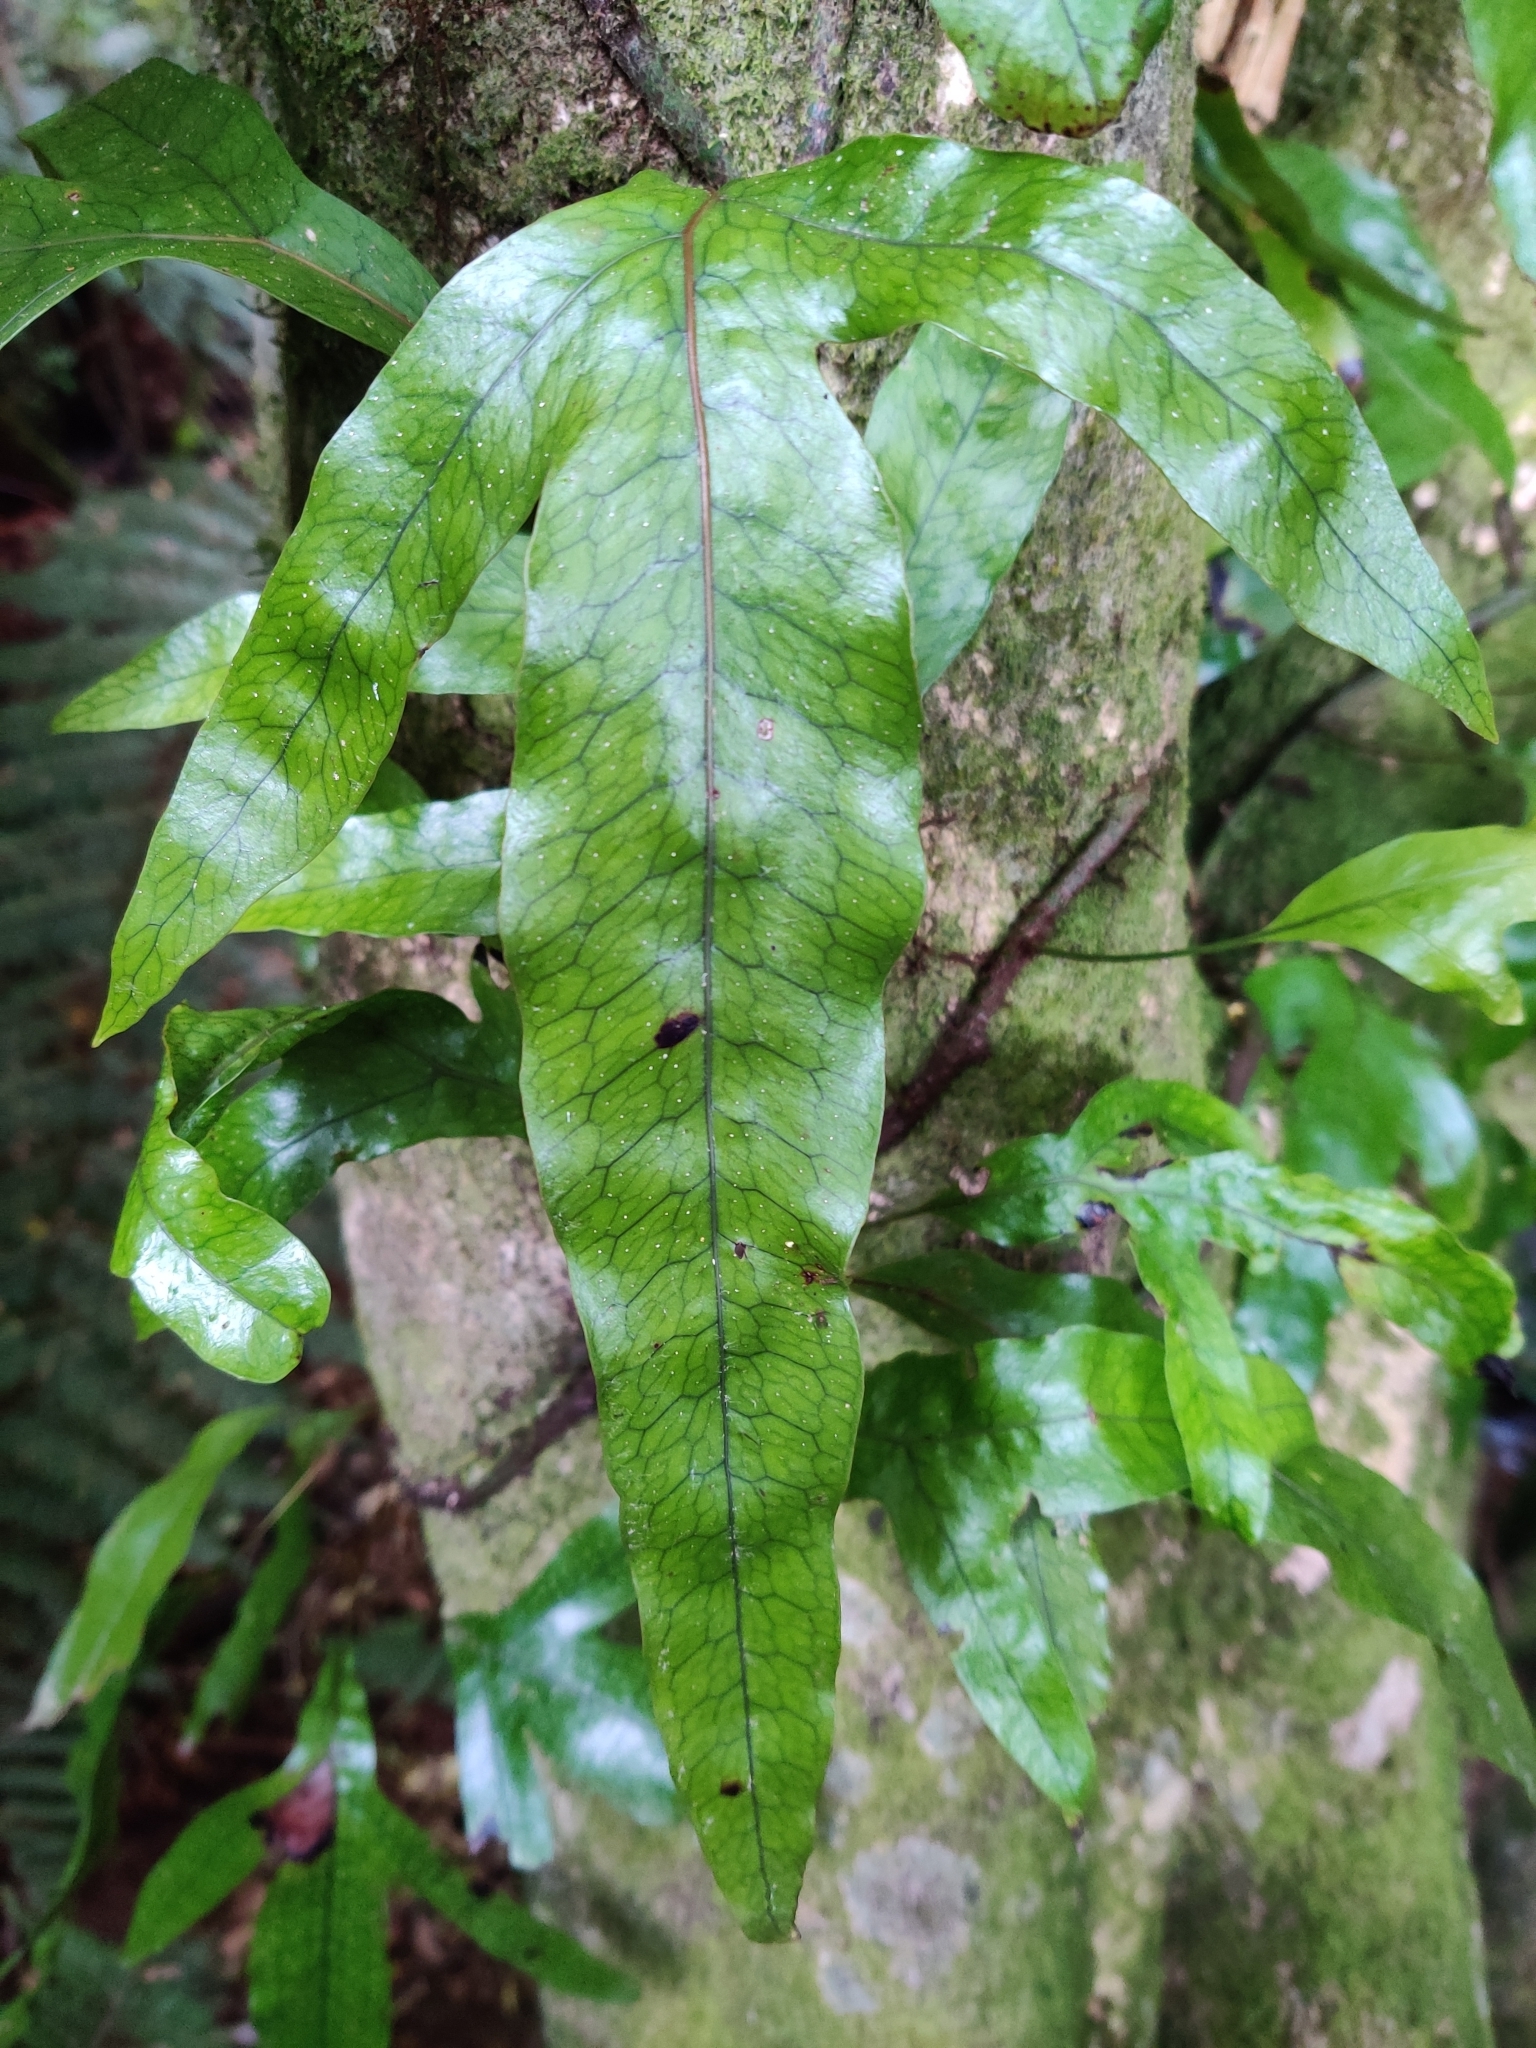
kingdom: Plantae
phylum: Tracheophyta
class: Polypodiopsida
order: Polypodiales
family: Polypodiaceae
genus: Lecanopteris
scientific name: Lecanopteris pustulata
